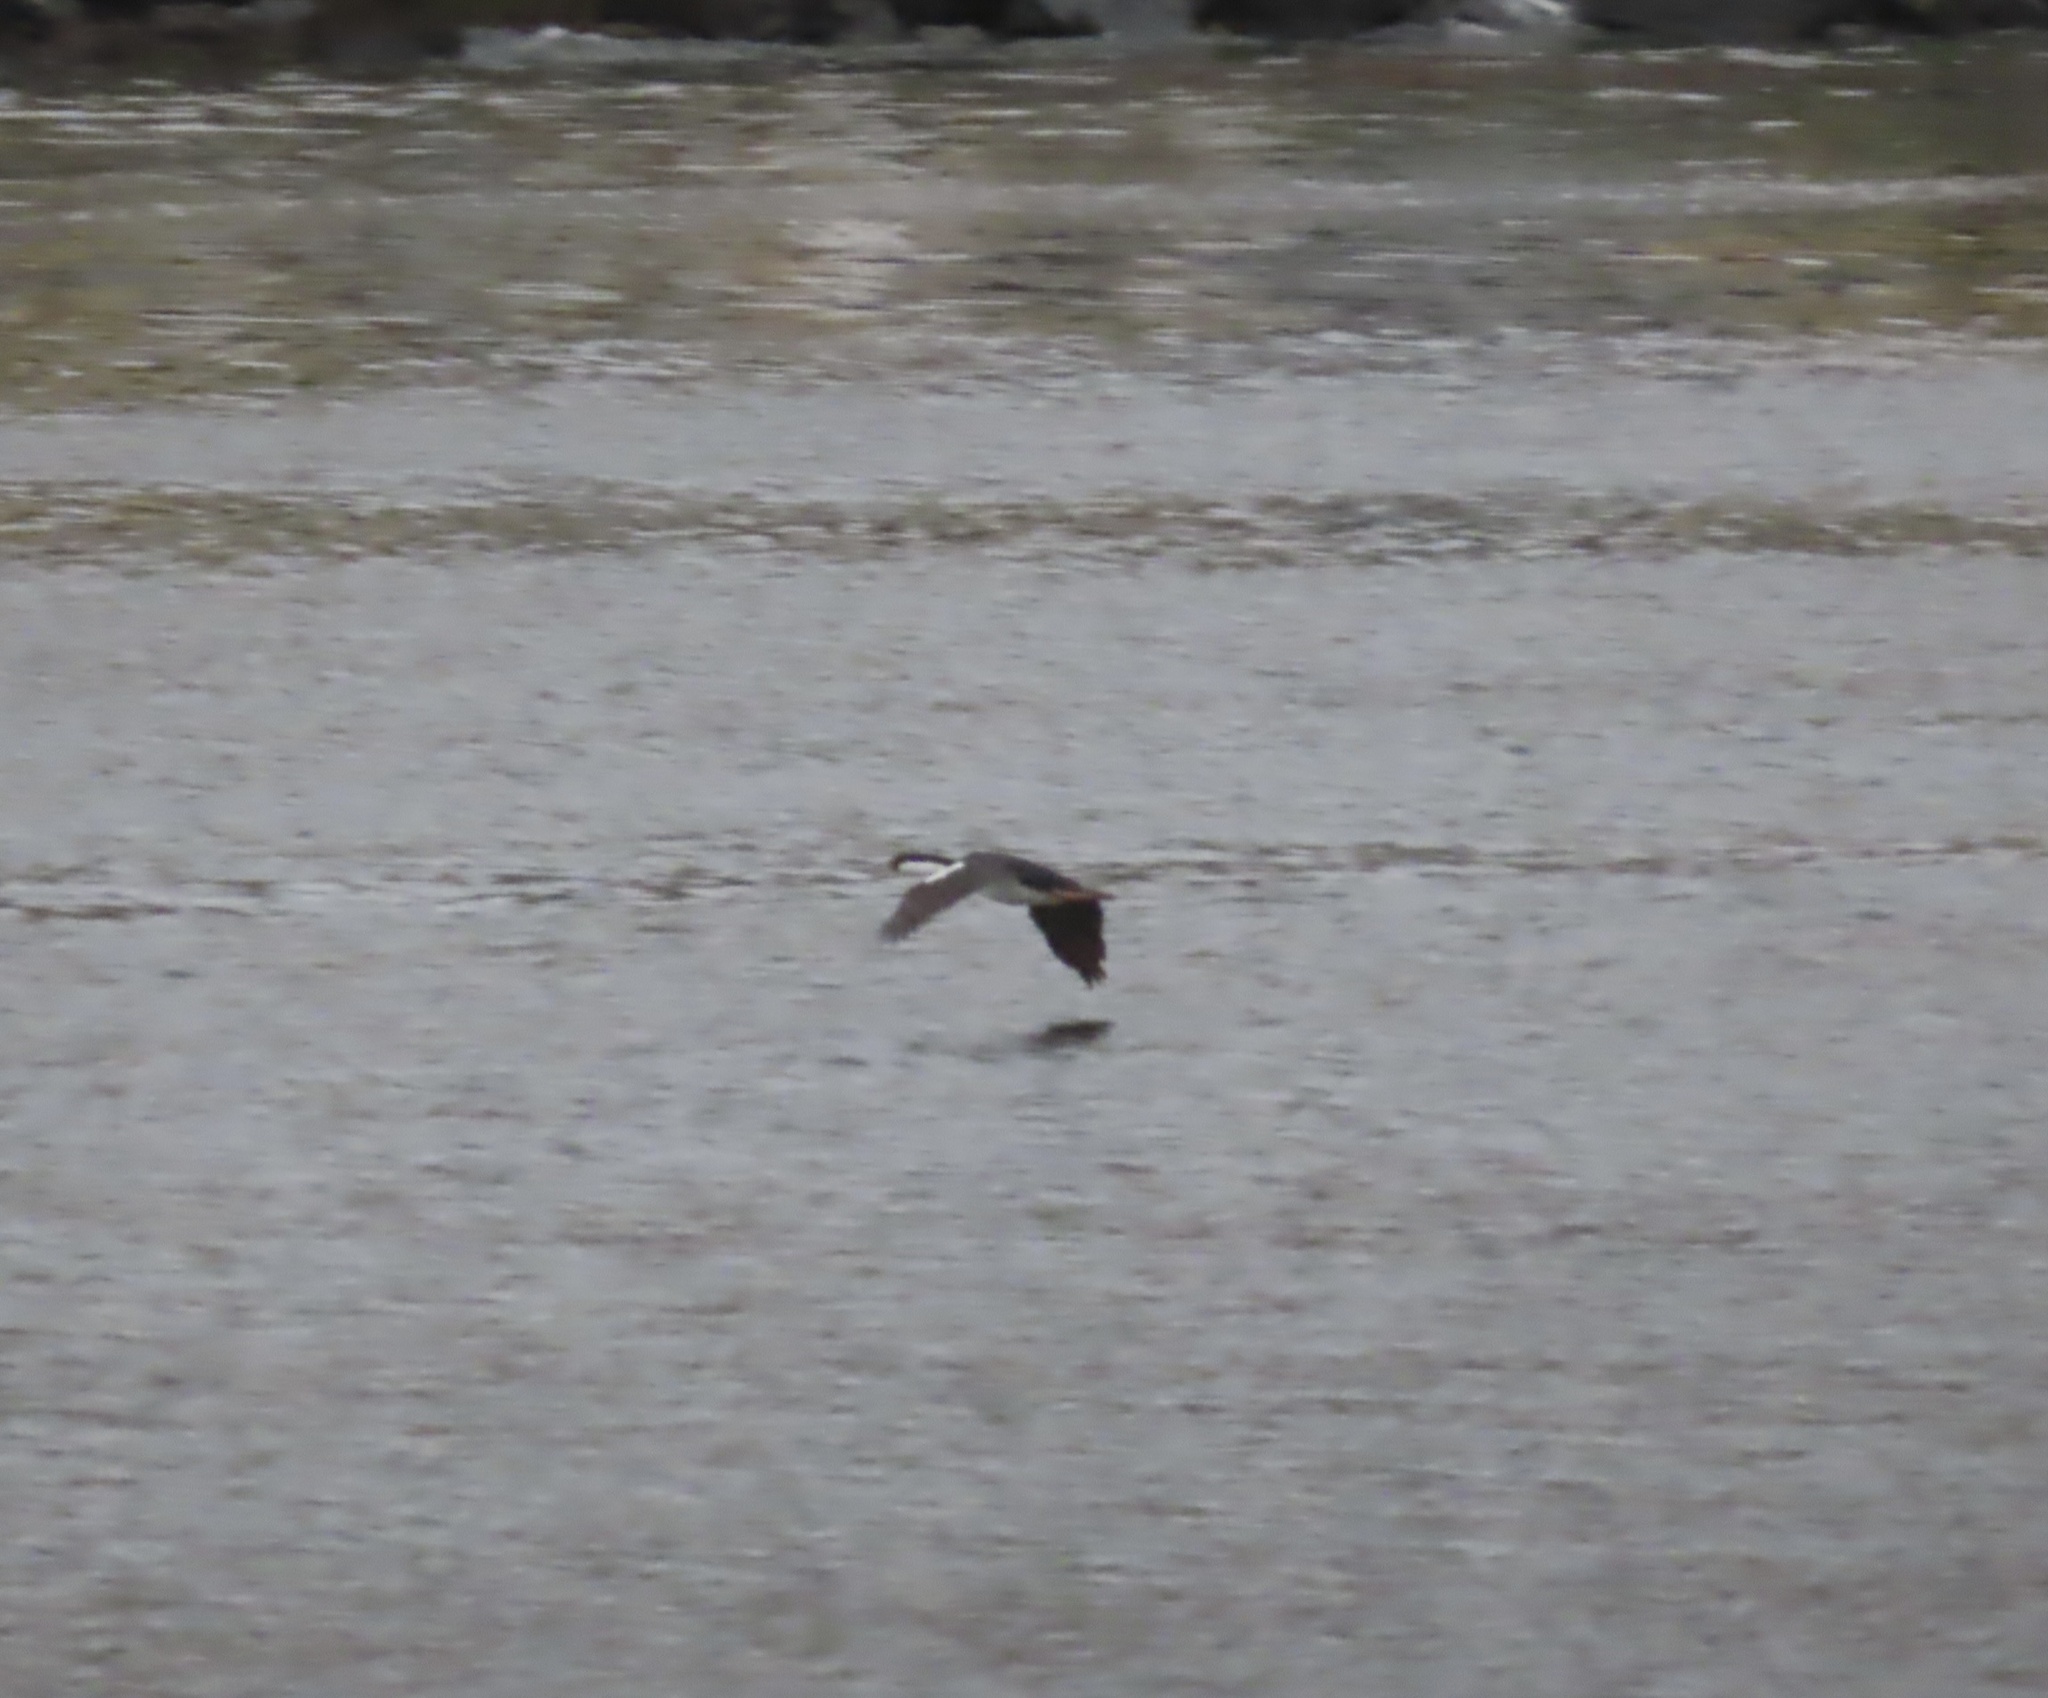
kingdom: Animalia
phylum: Chordata
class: Aves
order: Suliformes
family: Phalacrocoracidae
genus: Leucocarbo
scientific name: Leucocarbo atriceps
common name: Imperial shag
